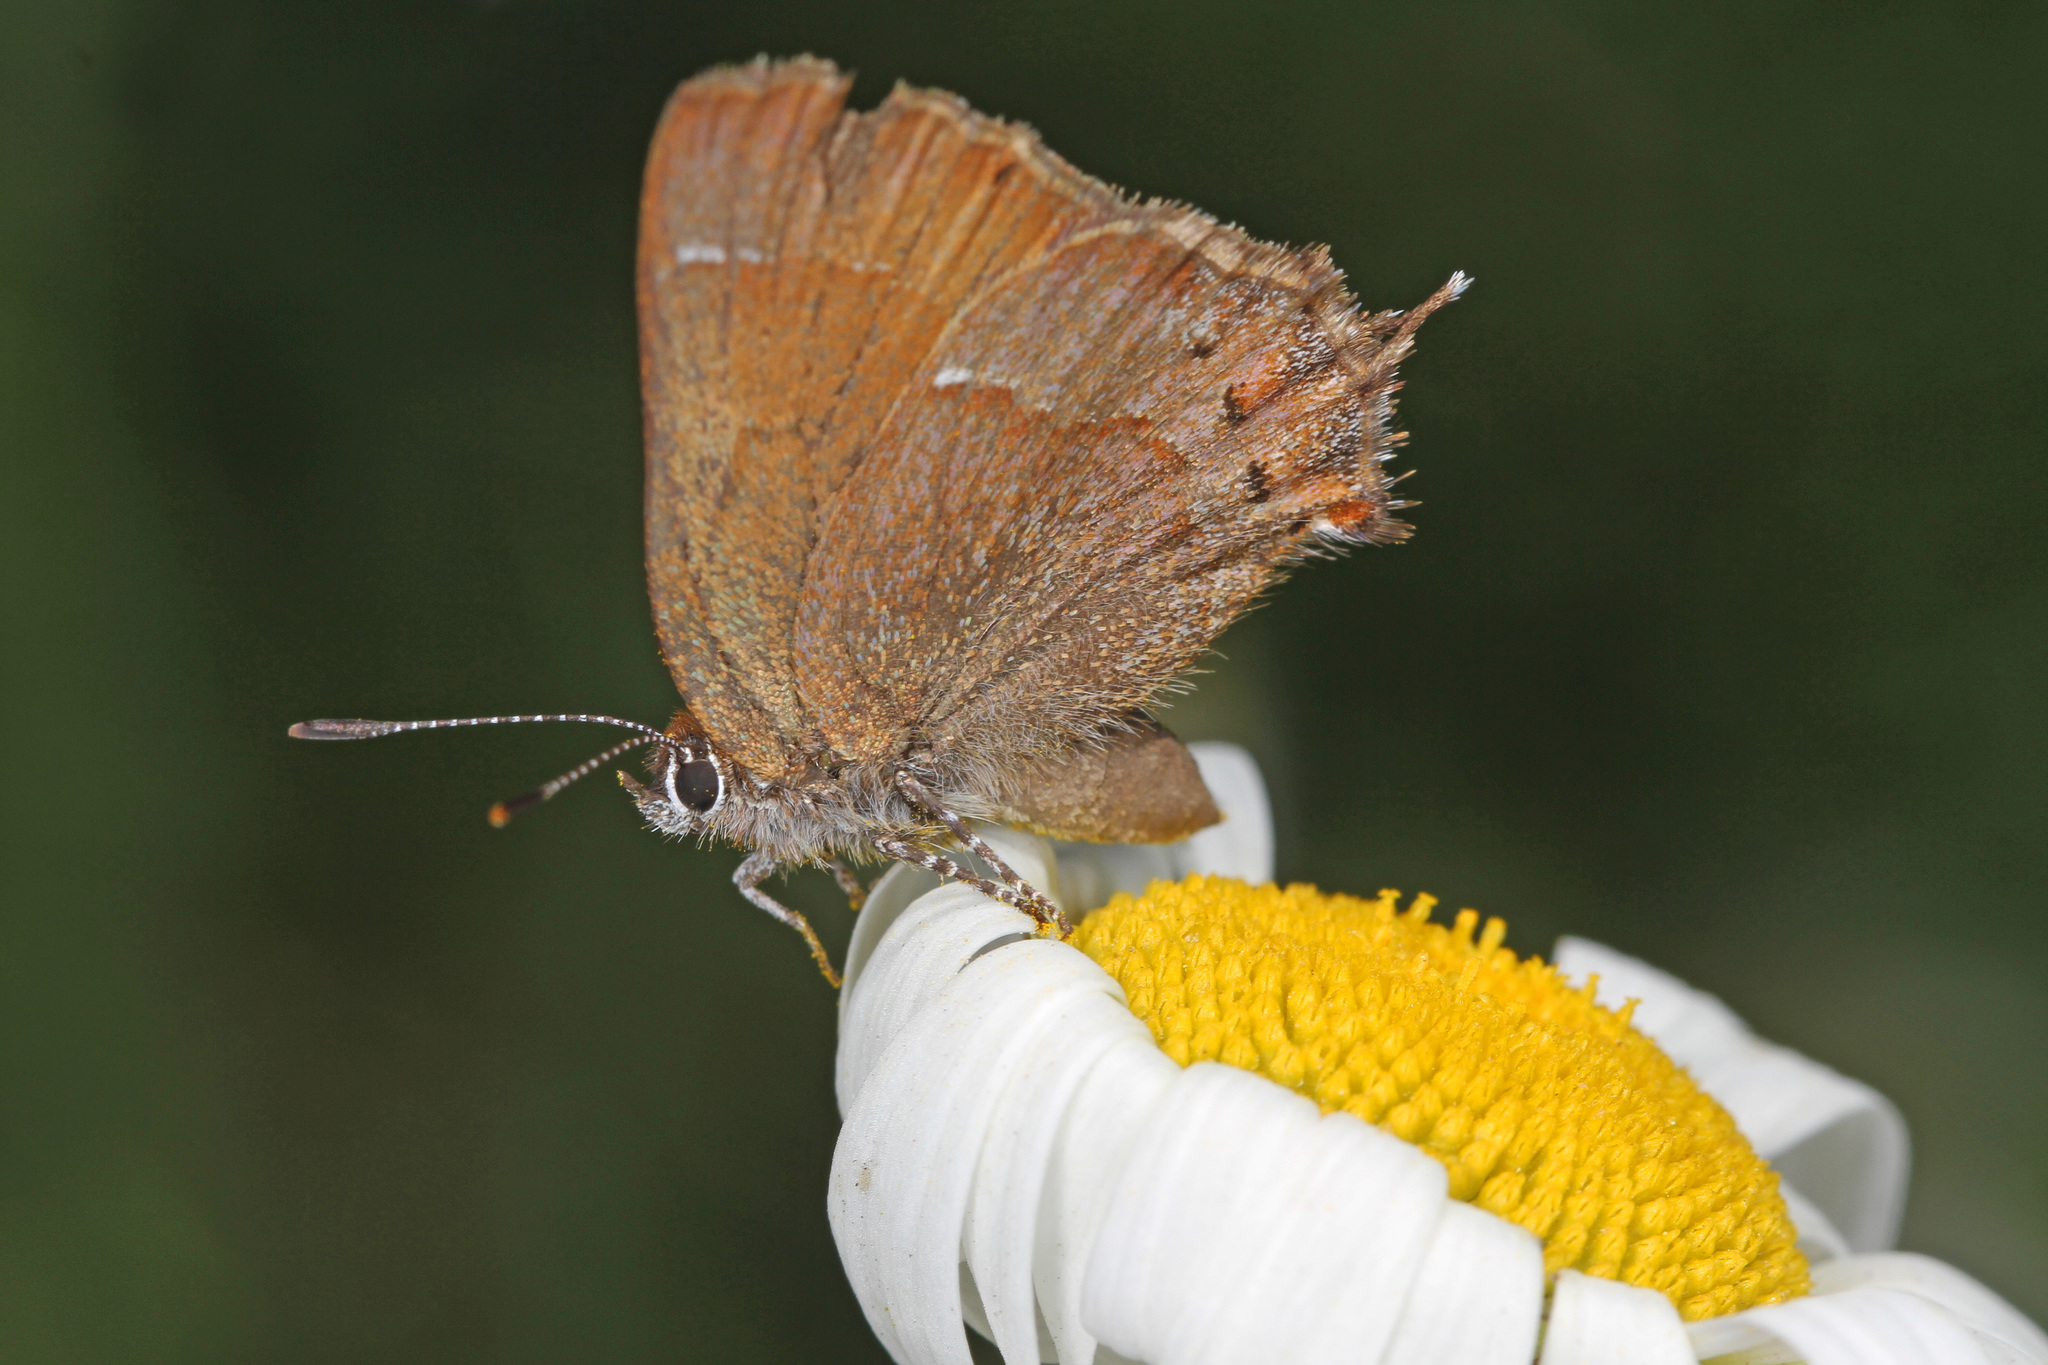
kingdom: Animalia
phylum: Arthropoda
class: Insecta
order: Lepidoptera
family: Lycaenidae
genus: Mitoura
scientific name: Mitoura gryneus
